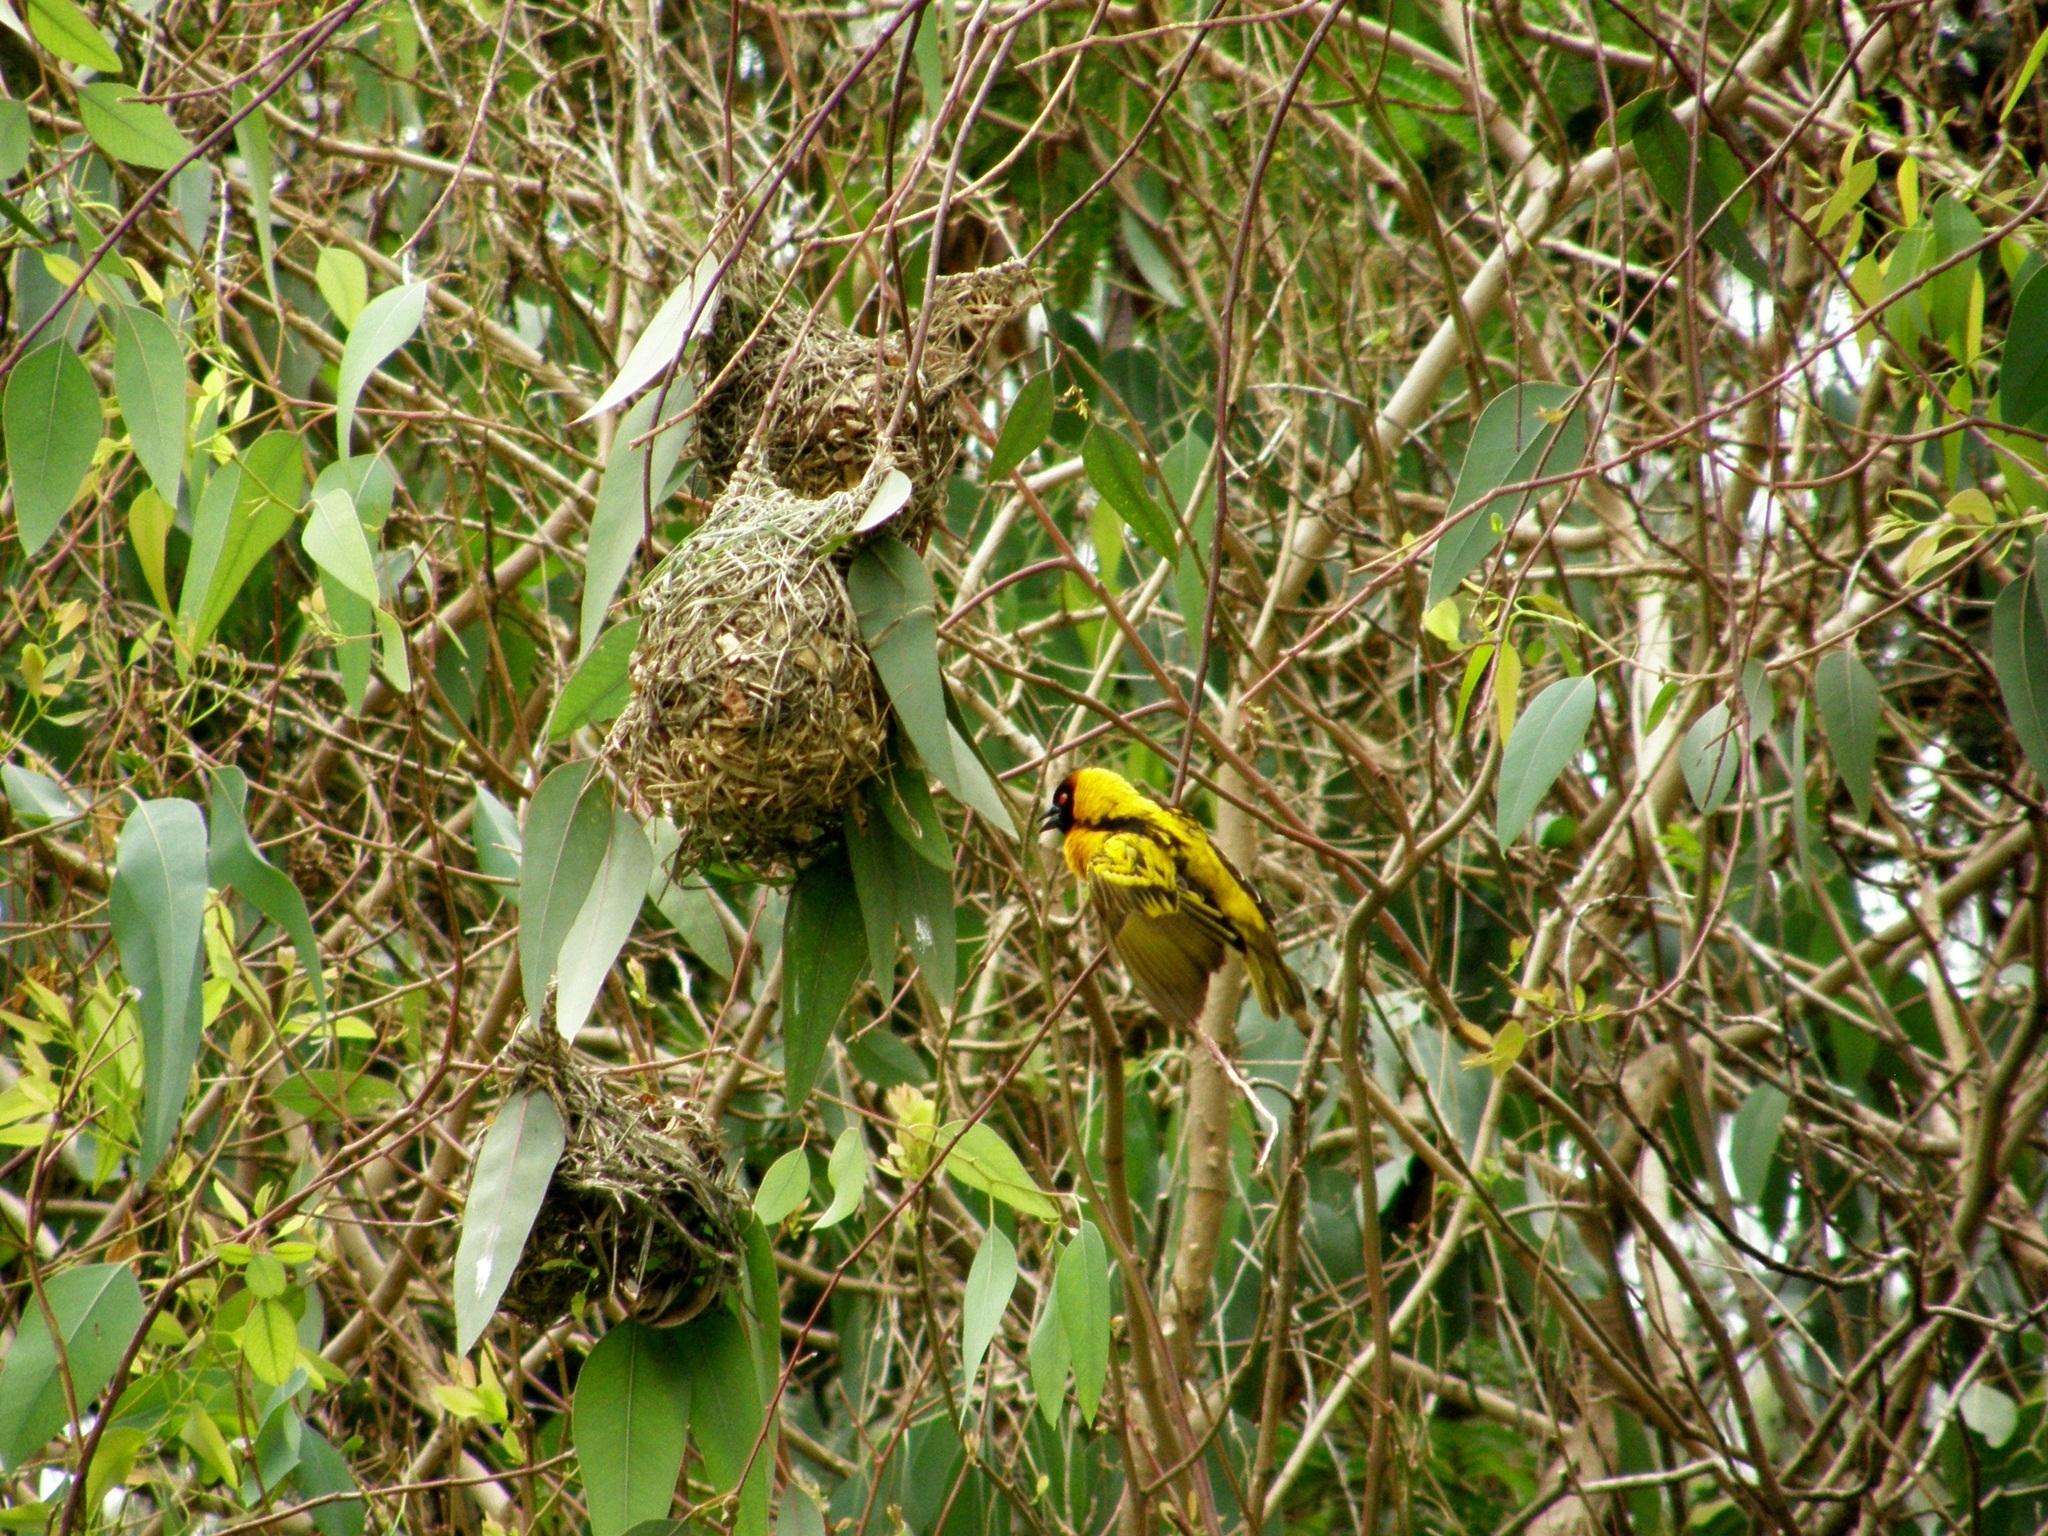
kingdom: Animalia
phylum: Chordata
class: Aves
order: Passeriformes
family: Ploceidae
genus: Ploceus
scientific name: Ploceus cucullatus
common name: Village weaver
